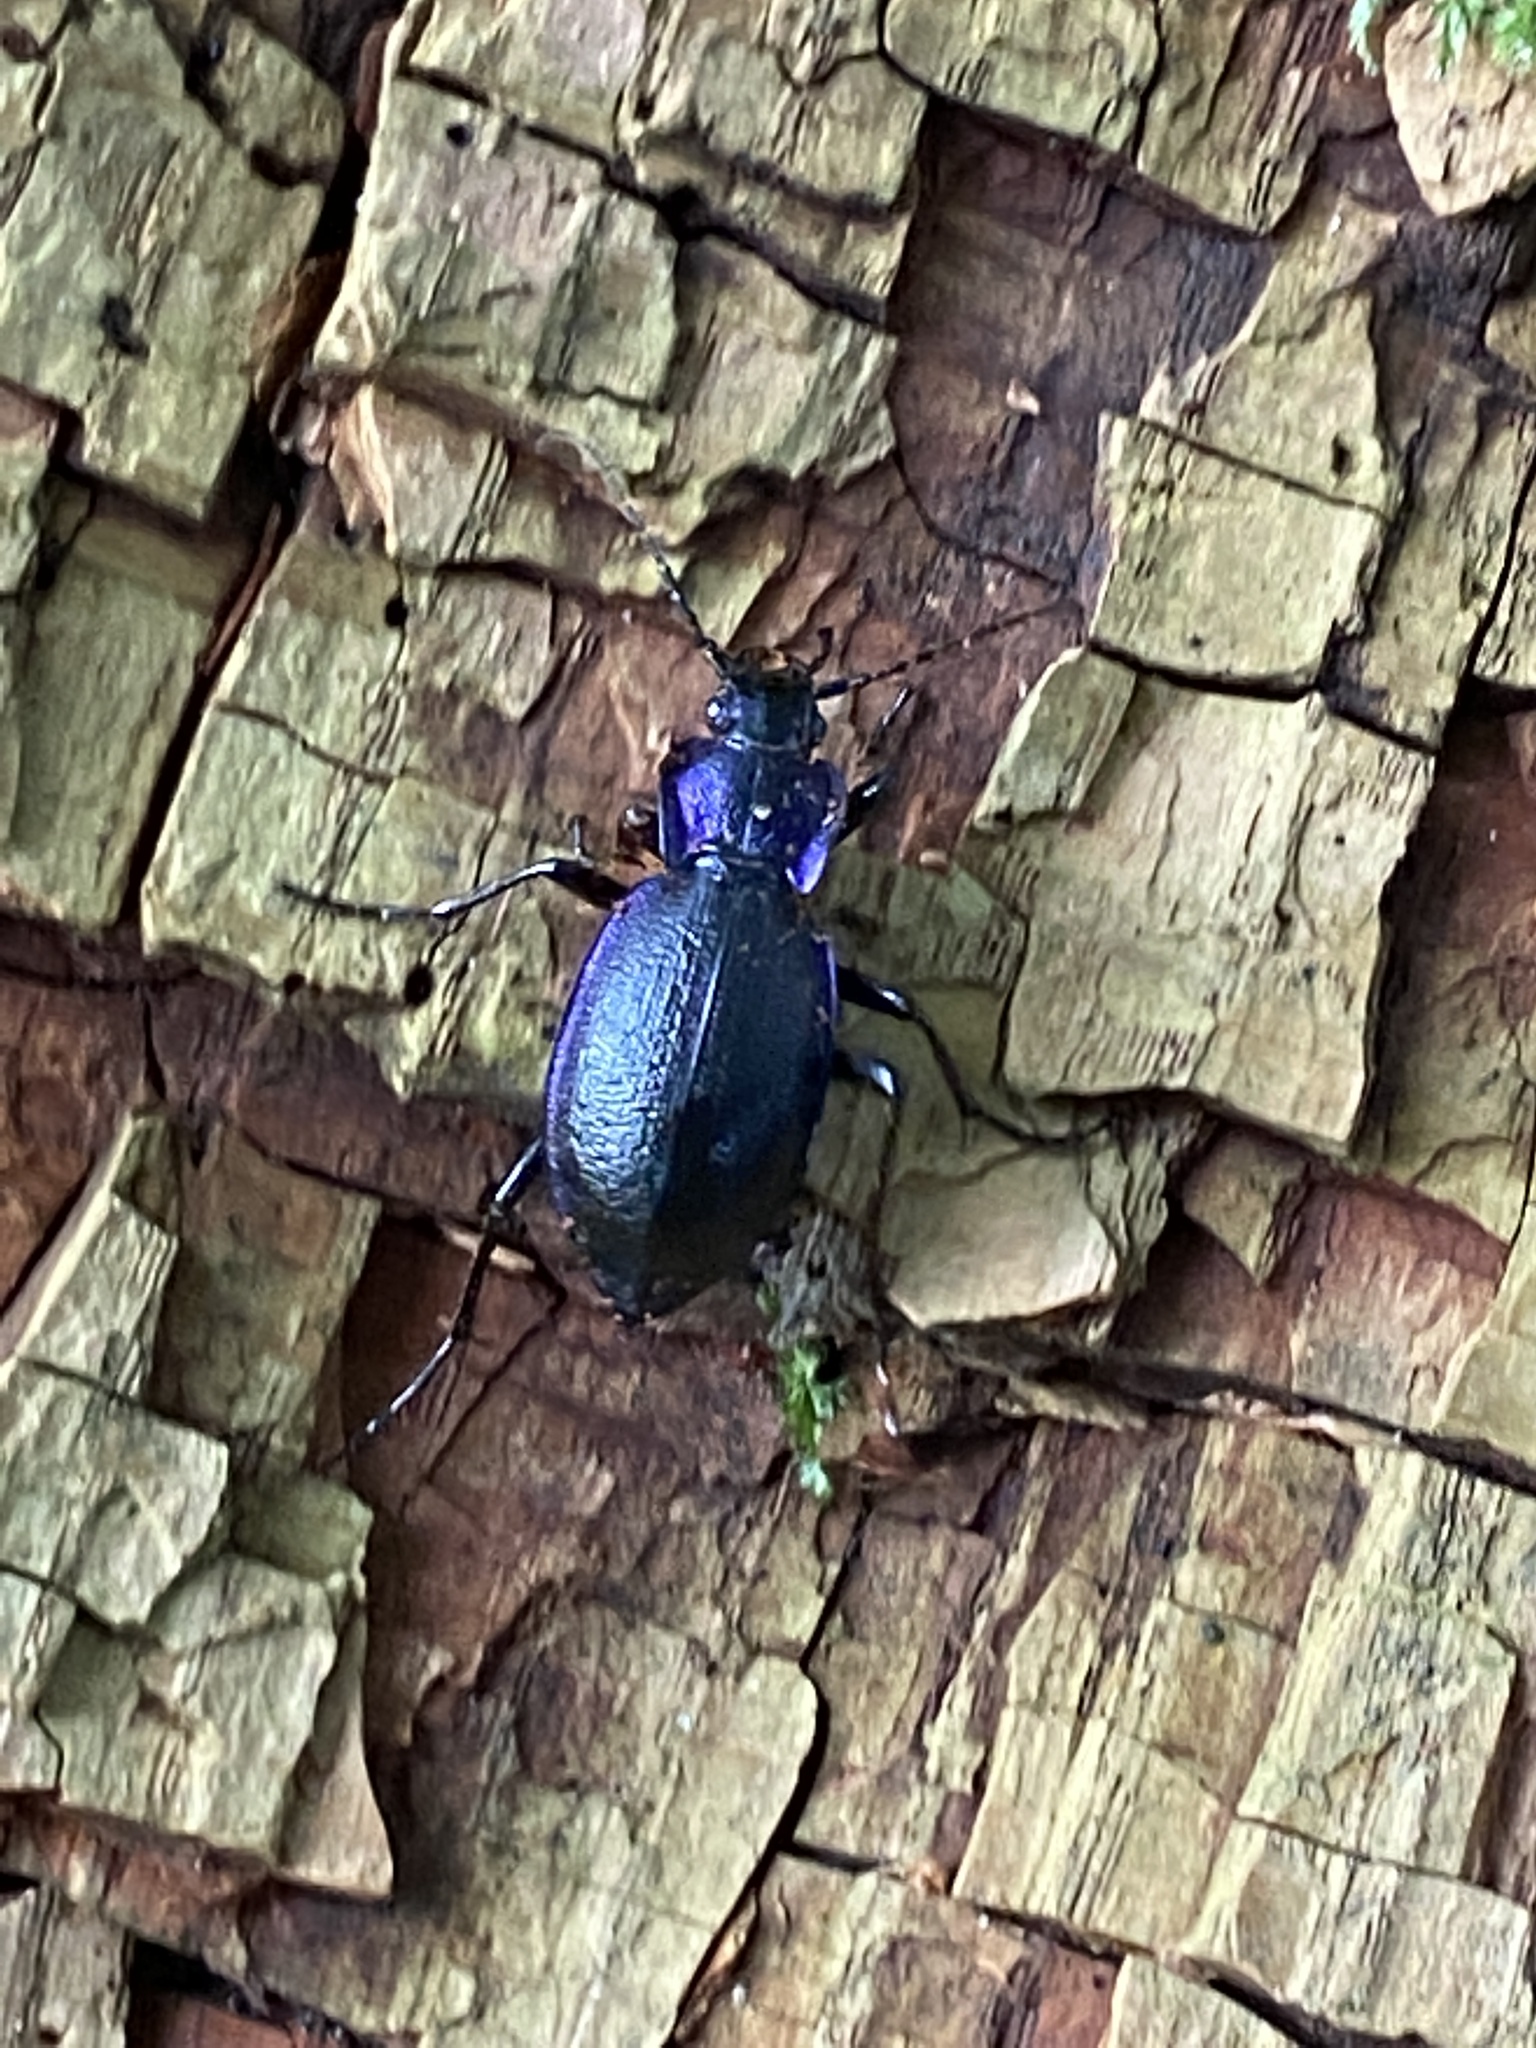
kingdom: Animalia
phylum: Arthropoda
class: Insecta
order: Coleoptera
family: Carabidae
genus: Carabus
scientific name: Carabus problematicus
